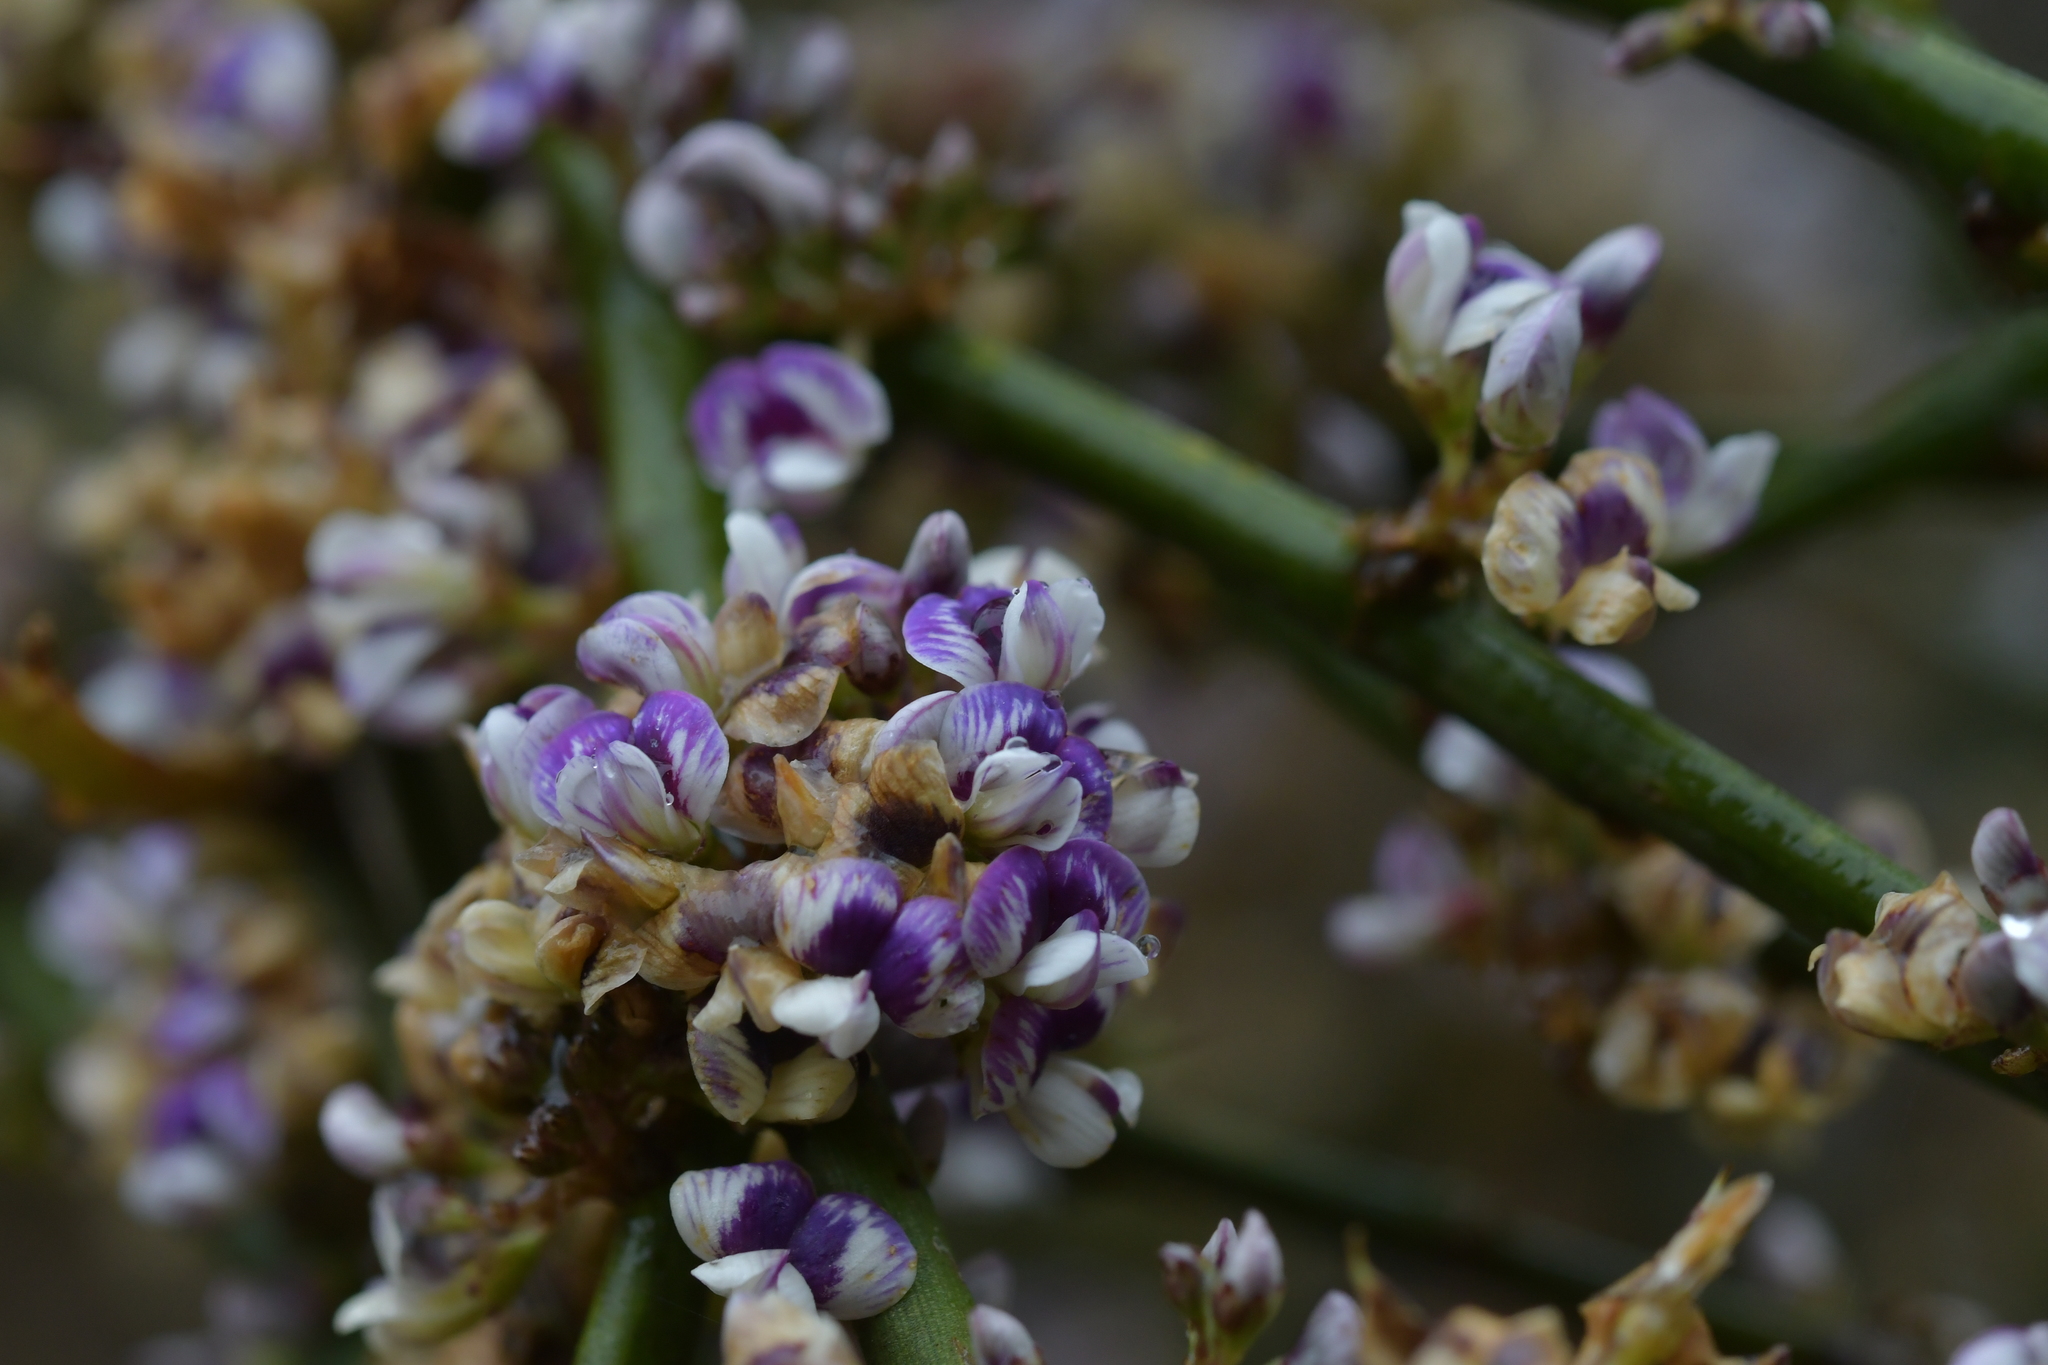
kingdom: Plantae
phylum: Tracheophyta
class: Magnoliopsida
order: Fabales
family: Fabaceae
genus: Carmichaelia
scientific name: Carmichaelia australis
